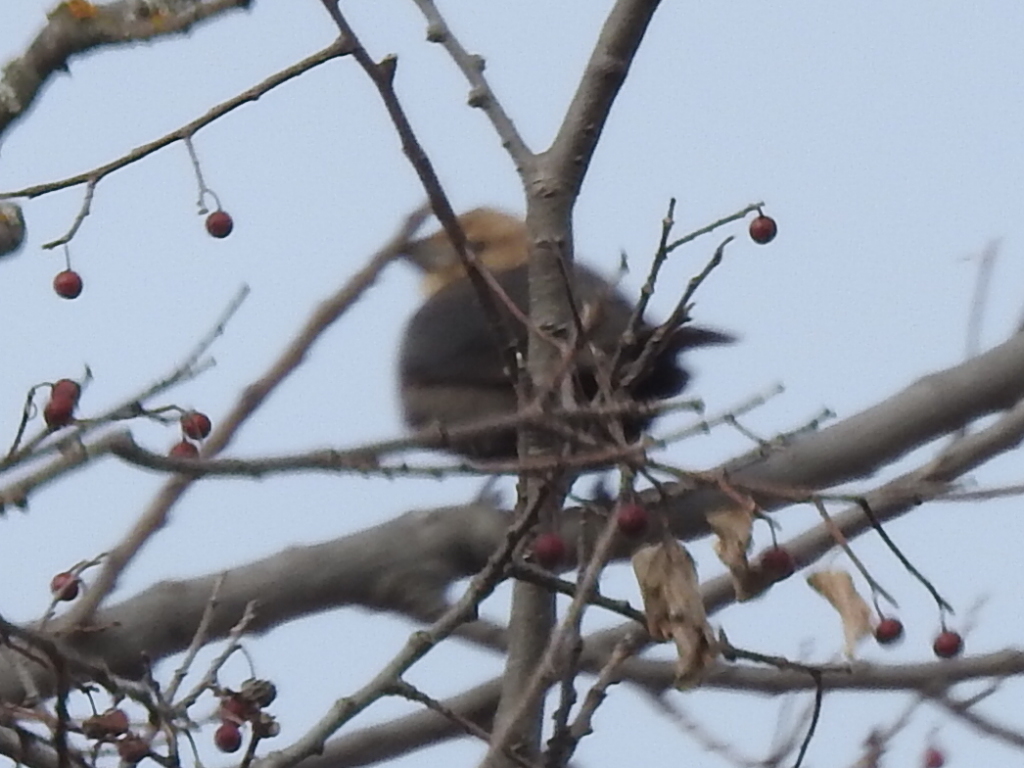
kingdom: Animalia
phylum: Chordata
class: Aves
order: Passeriformes
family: Icteridae
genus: Molothrus
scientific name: Molothrus ater
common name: Brown-headed cowbird
